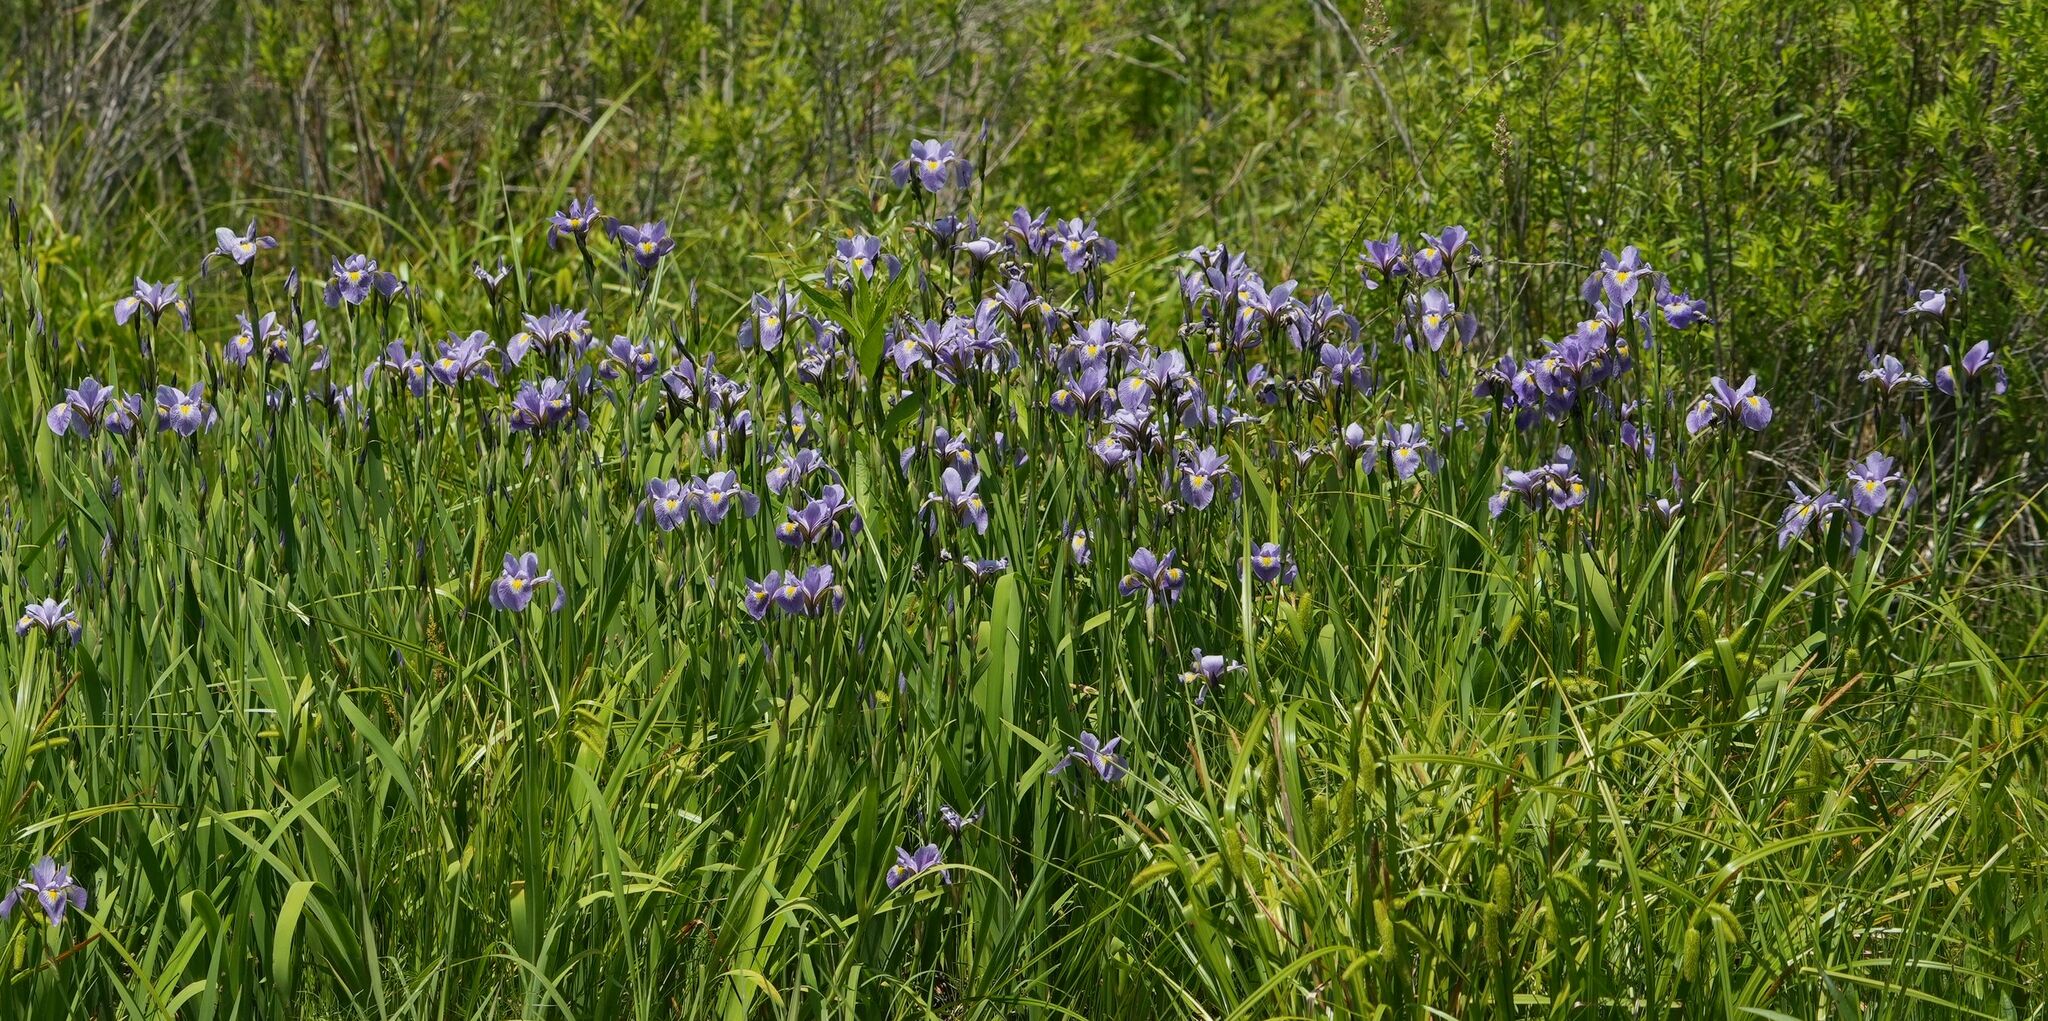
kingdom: Plantae
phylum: Tracheophyta
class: Liliopsida
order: Asparagales
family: Iridaceae
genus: Iris
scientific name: Iris versicolor
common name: Purple iris
